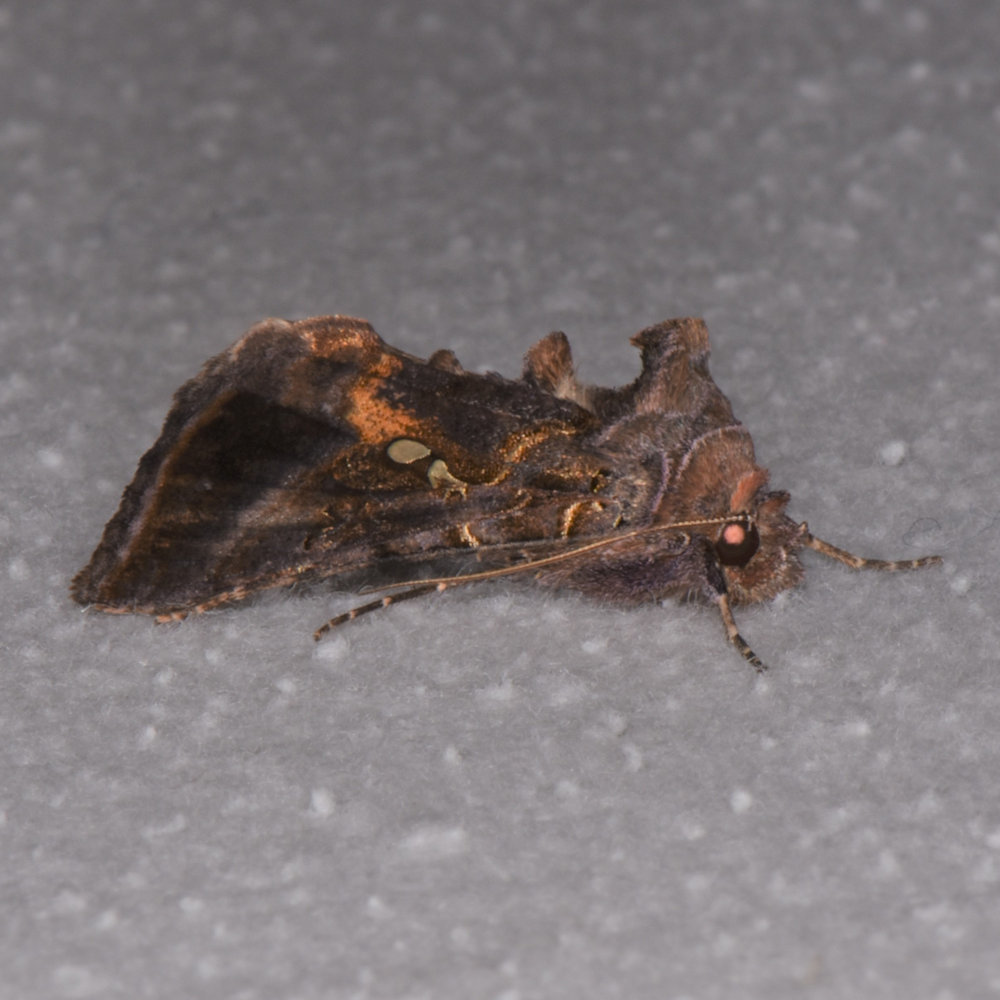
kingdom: Animalia
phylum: Arthropoda
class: Insecta
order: Lepidoptera
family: Noctuidae
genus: Autographa
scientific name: Autographa precationis
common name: Common looper moth
